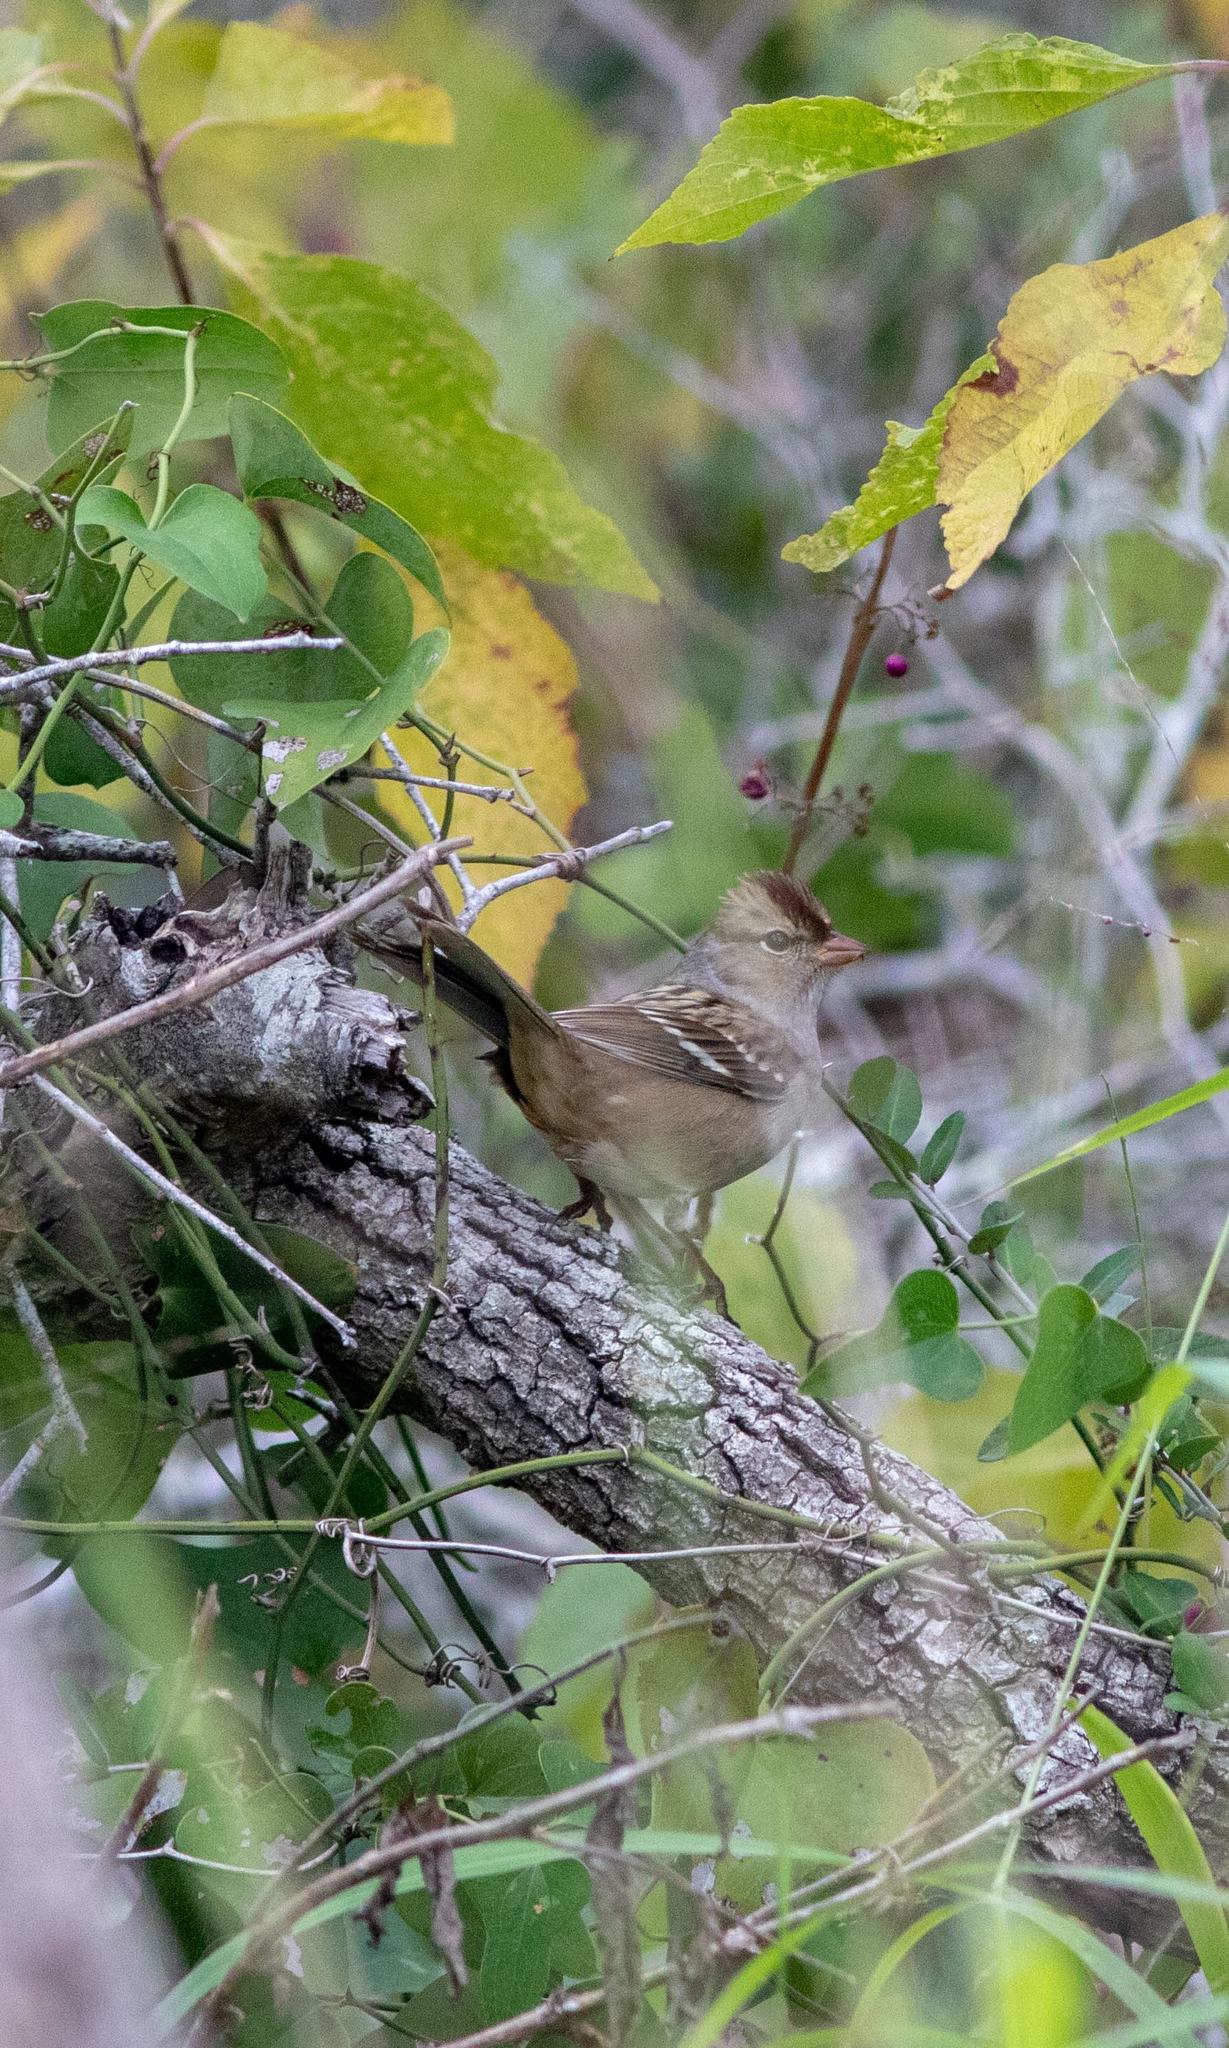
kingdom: Animalia
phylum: Chordata
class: Aves
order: Passeriformes
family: Passerellidae
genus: Zonotrichia
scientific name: Zonotrichia leucophrys
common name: White-crowned sparrow
